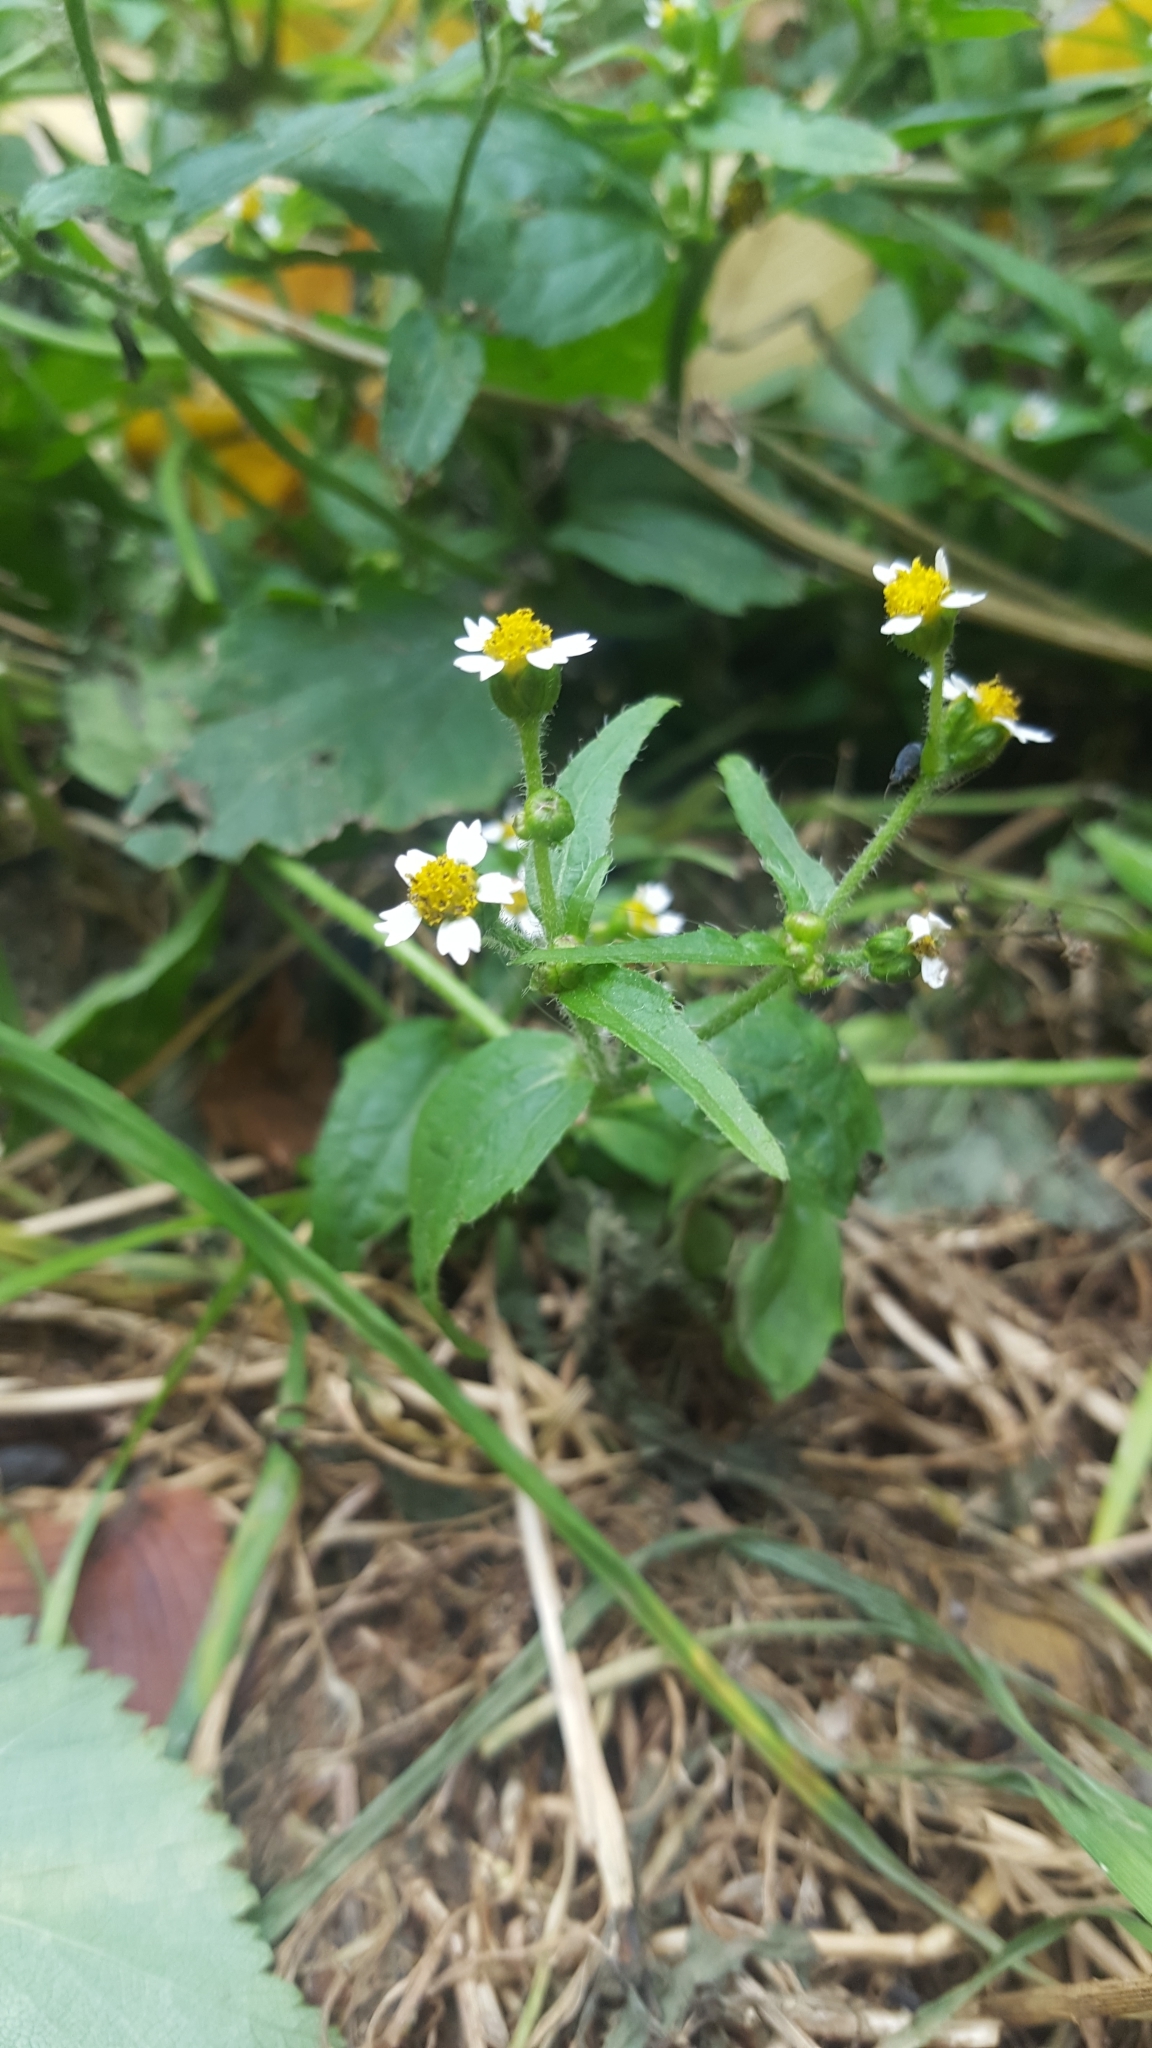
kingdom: Plantae
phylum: Tracheophyta
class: Magnoliopsida
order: Asterales
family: Asteraceae
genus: Galinsoga
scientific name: Galinsoga quadriradiata
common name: Shaggy soldier
